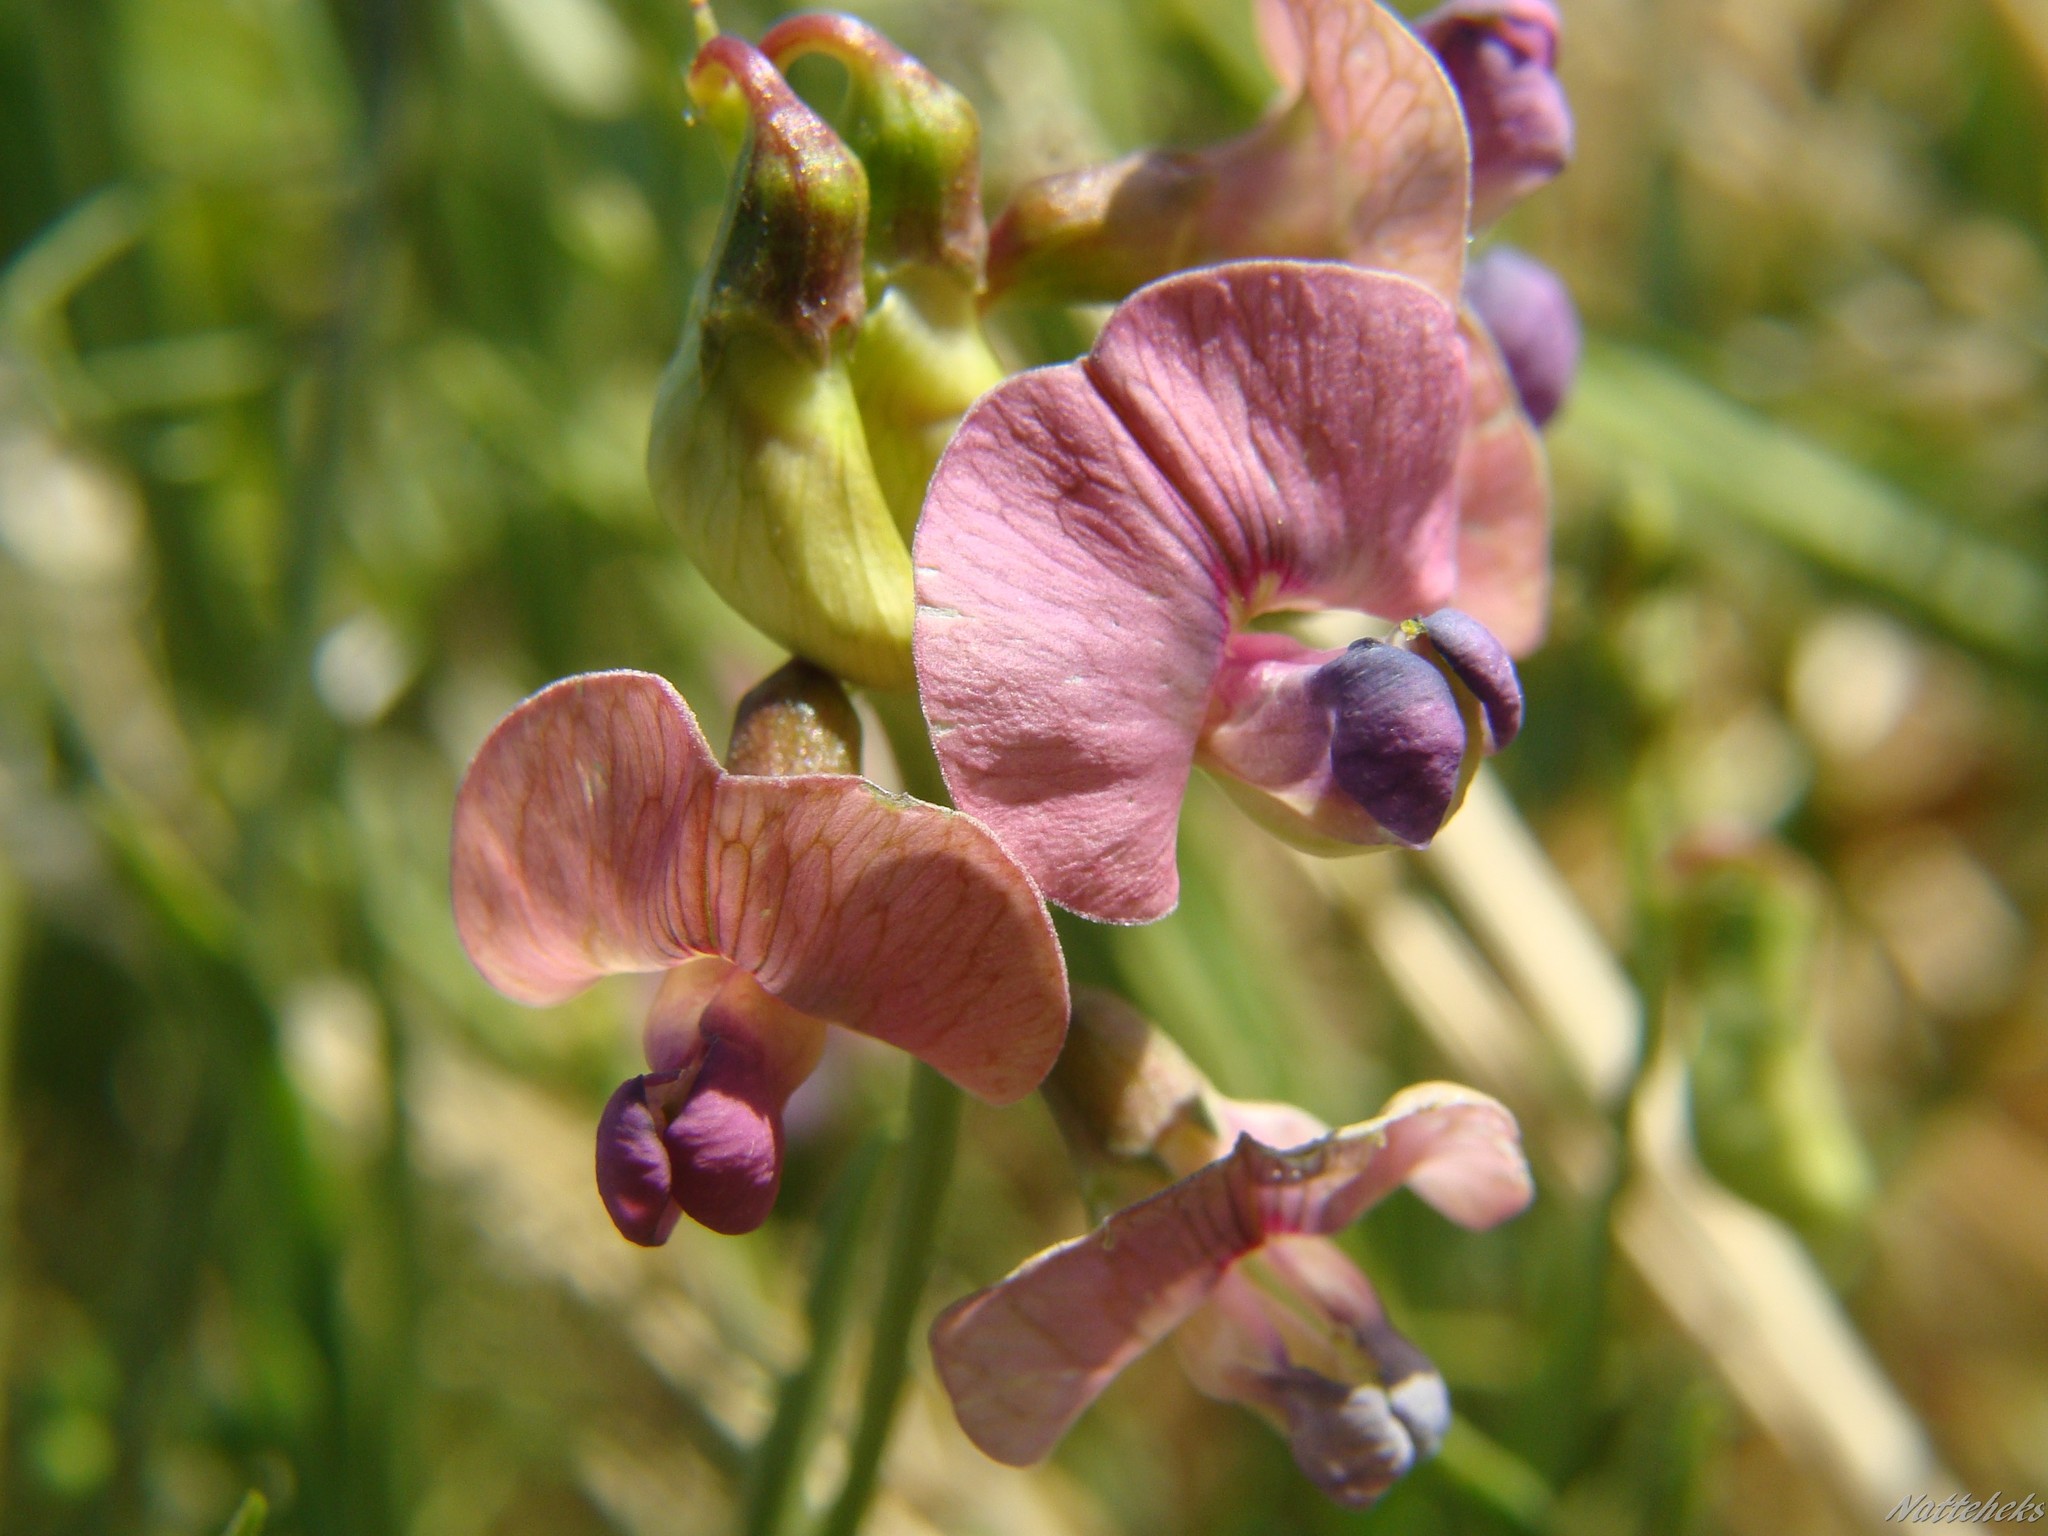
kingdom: Plantae
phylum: Tracheophyta
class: Magnoliopsida
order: Fabales
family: Fabaceae
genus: Lathyrus
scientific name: Lathyrus sylvestris
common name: Flat pea
